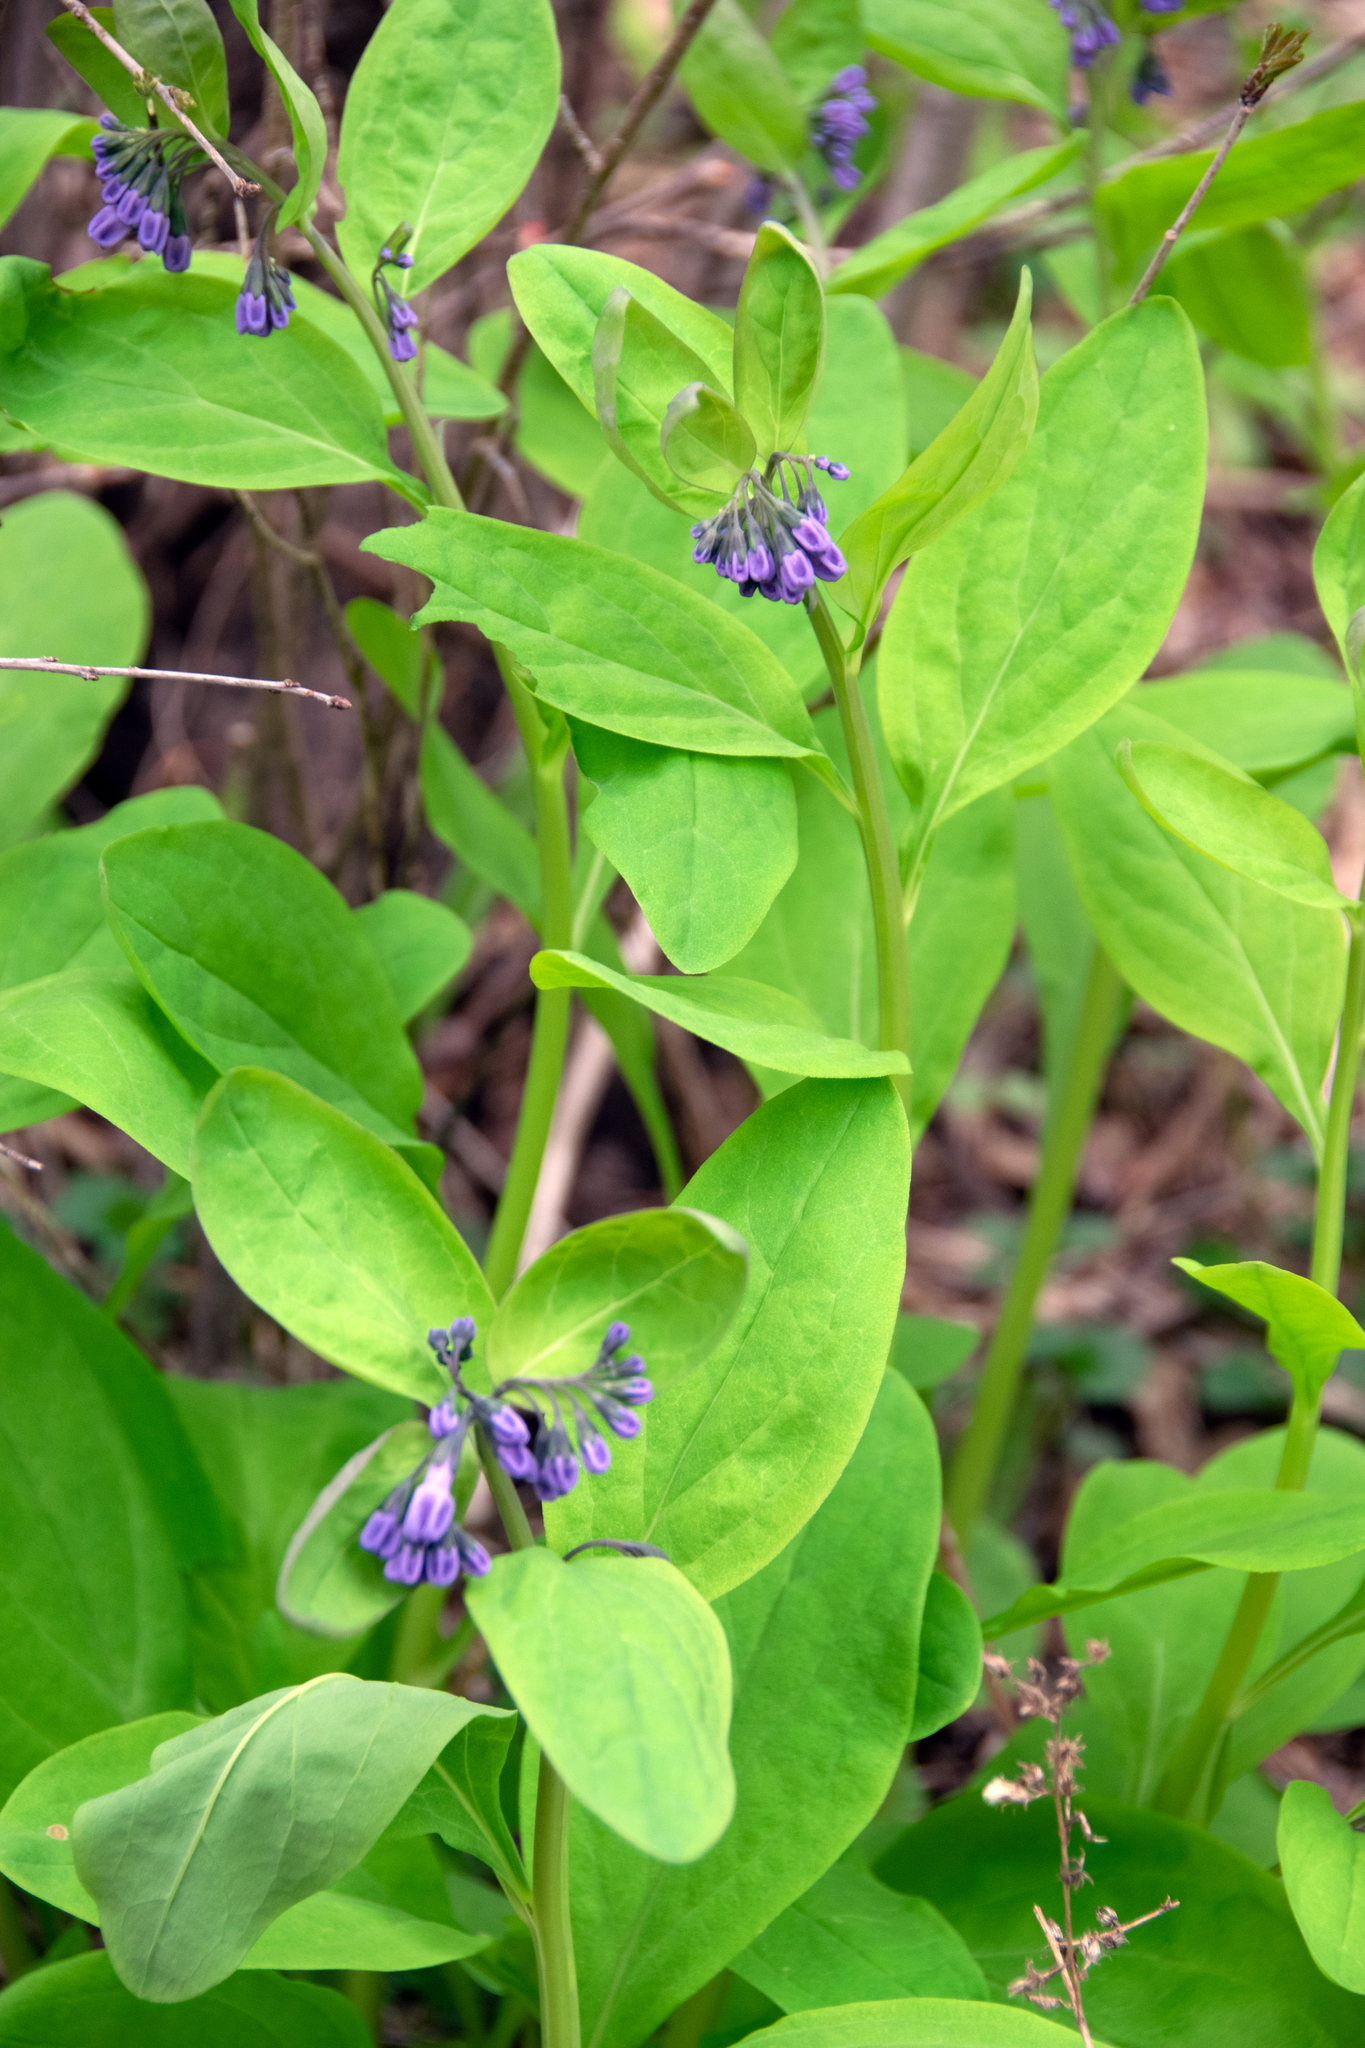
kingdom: Plantae
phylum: Tracheophyta
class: Magnoliopsida
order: Boraginales
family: Boraginaceae
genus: Mertensia
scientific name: Mertensia virginica
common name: Virginia bluebells
